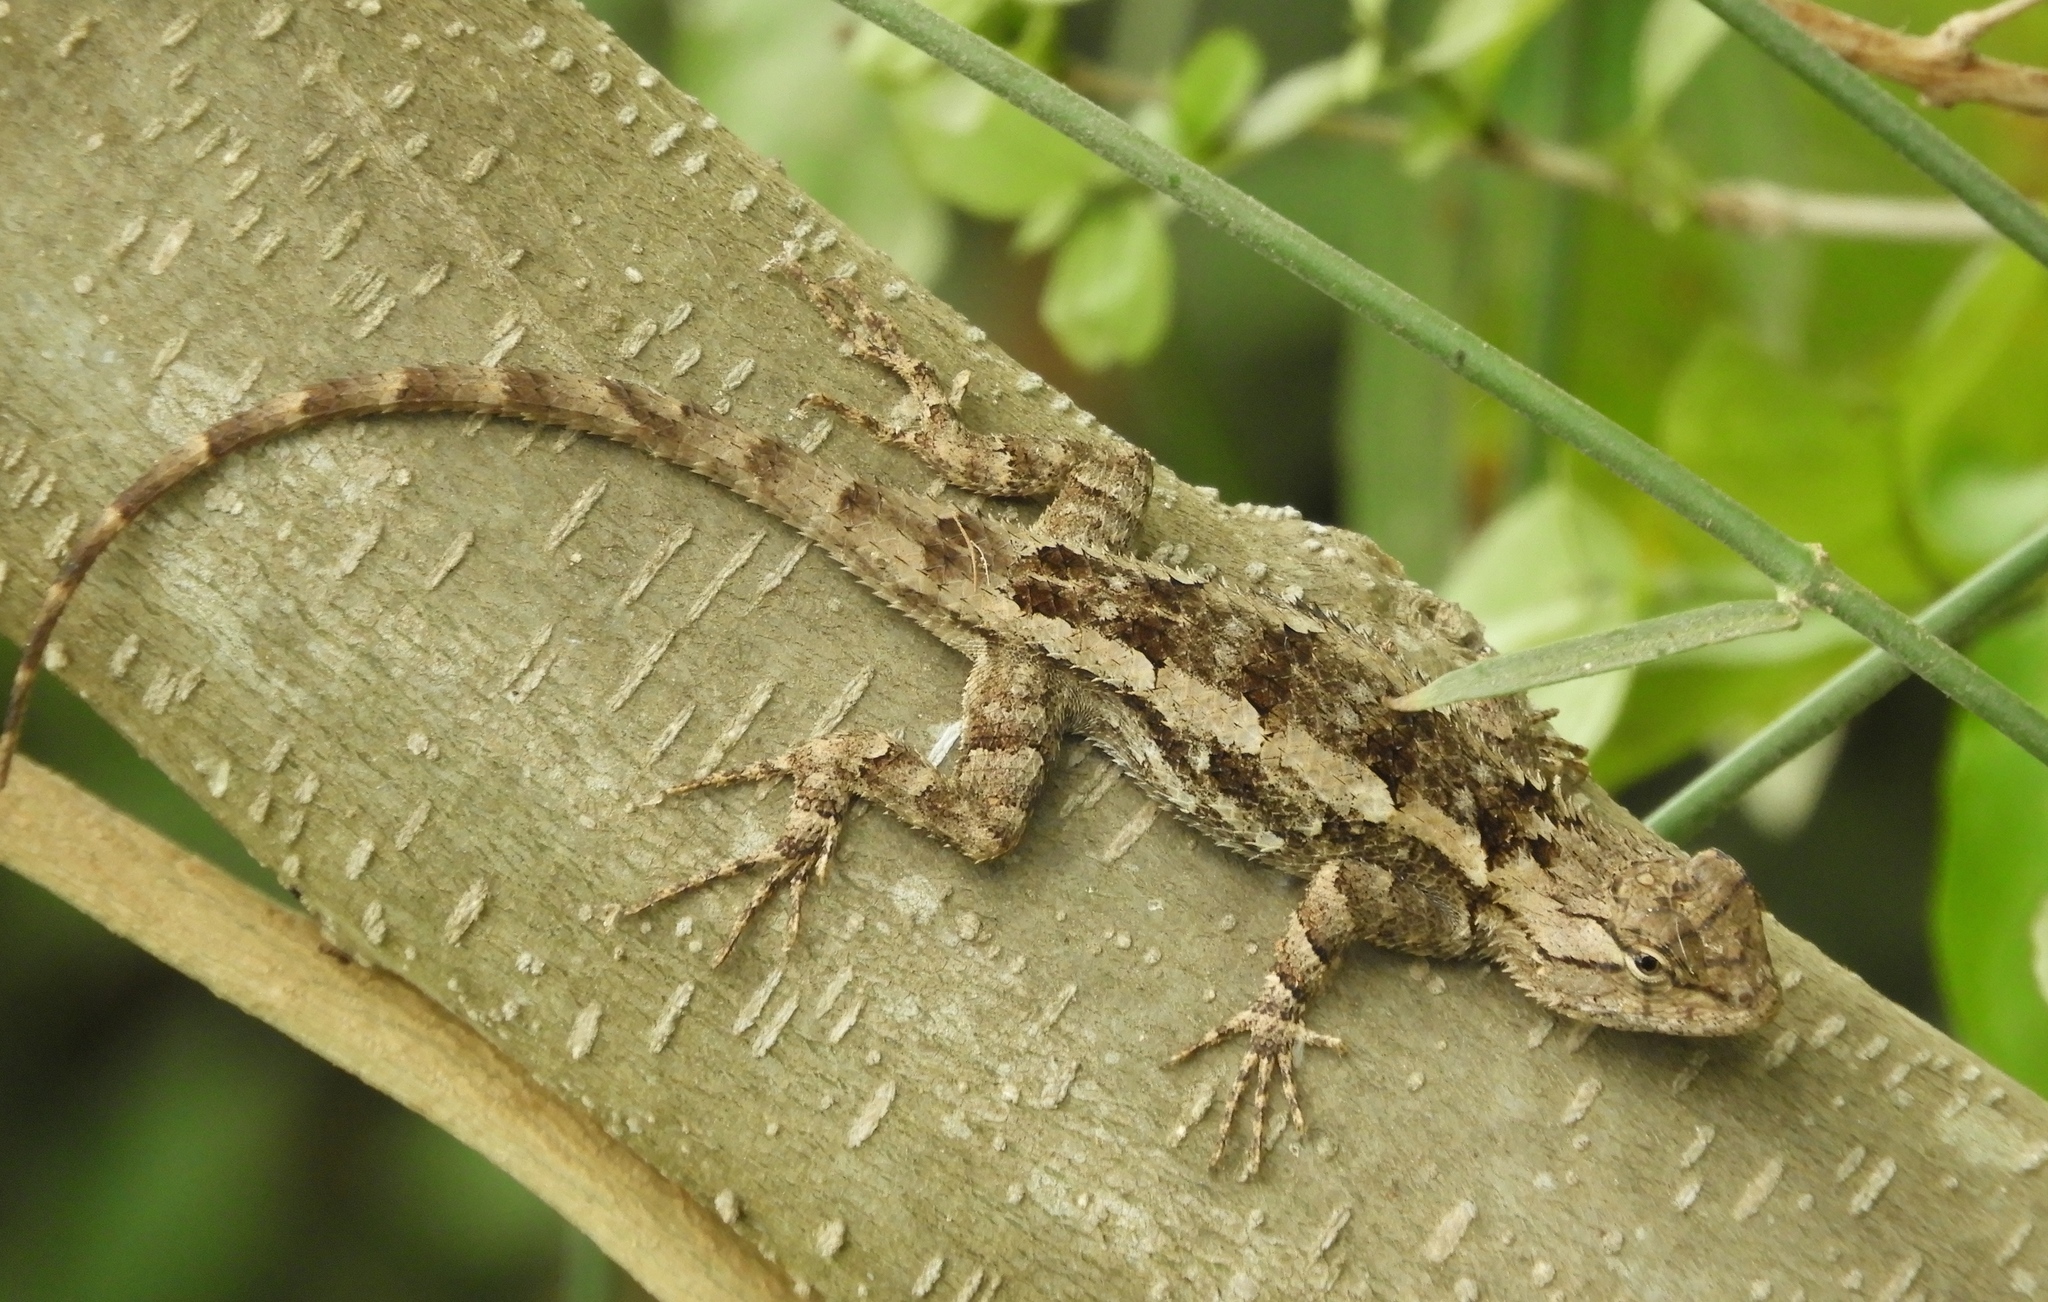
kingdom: Animalia
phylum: Chordata
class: Squamata
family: Phrynosomatidae
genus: Sceloporus
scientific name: Sceloporus clarkii
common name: Clark's spiny lizard
